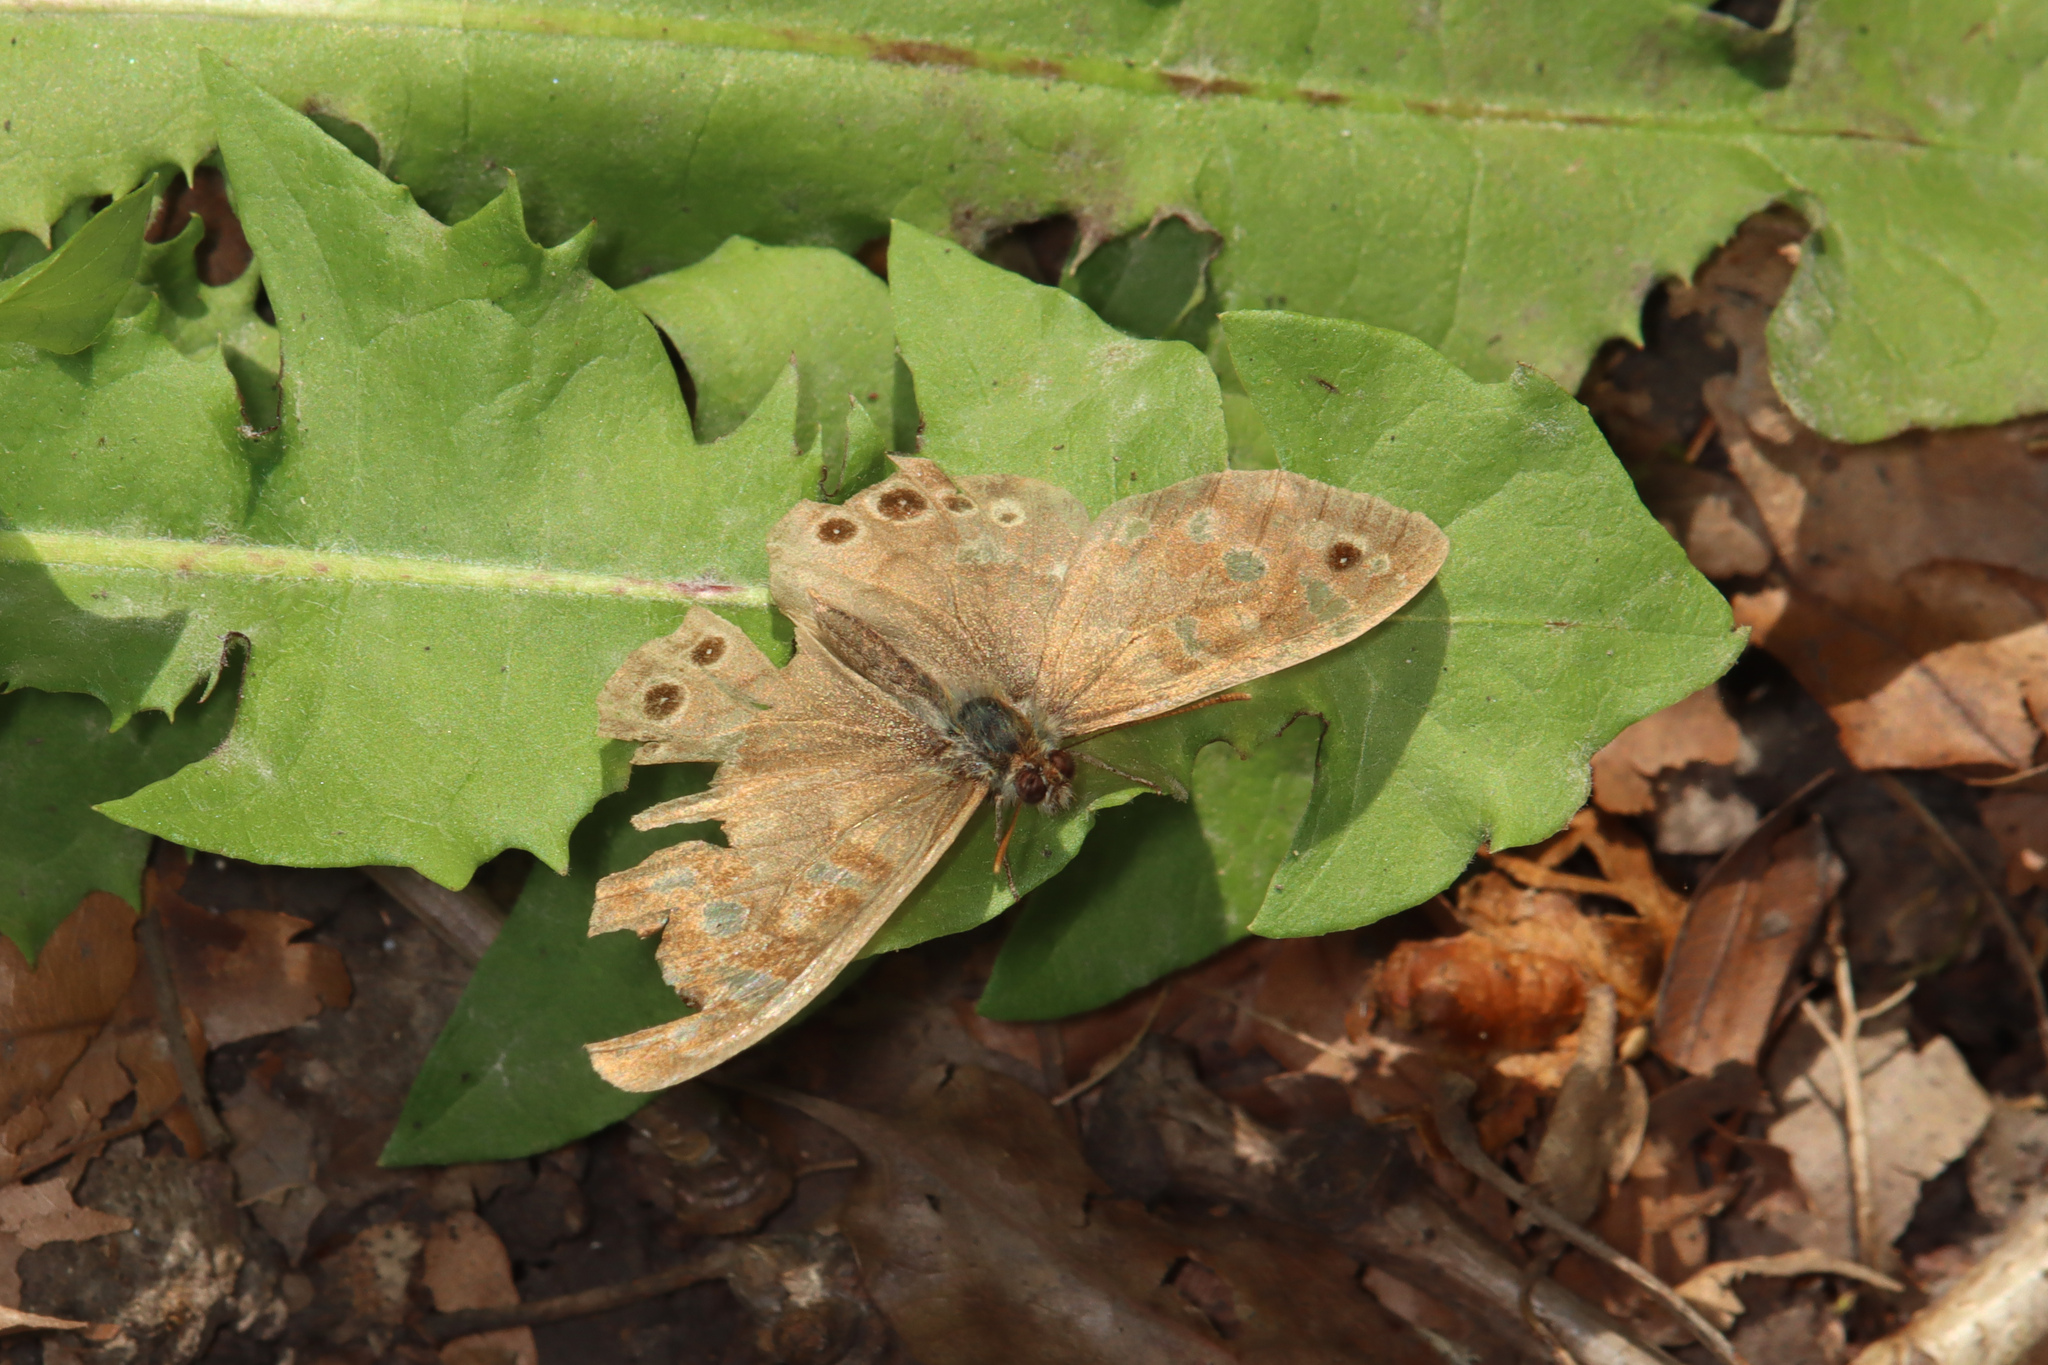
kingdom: Animalia
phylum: Arthropoda
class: Insecta
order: Lepidoptera
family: Nymphalidae
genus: Pararge
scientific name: Pararge aegeria
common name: Speckled wood
